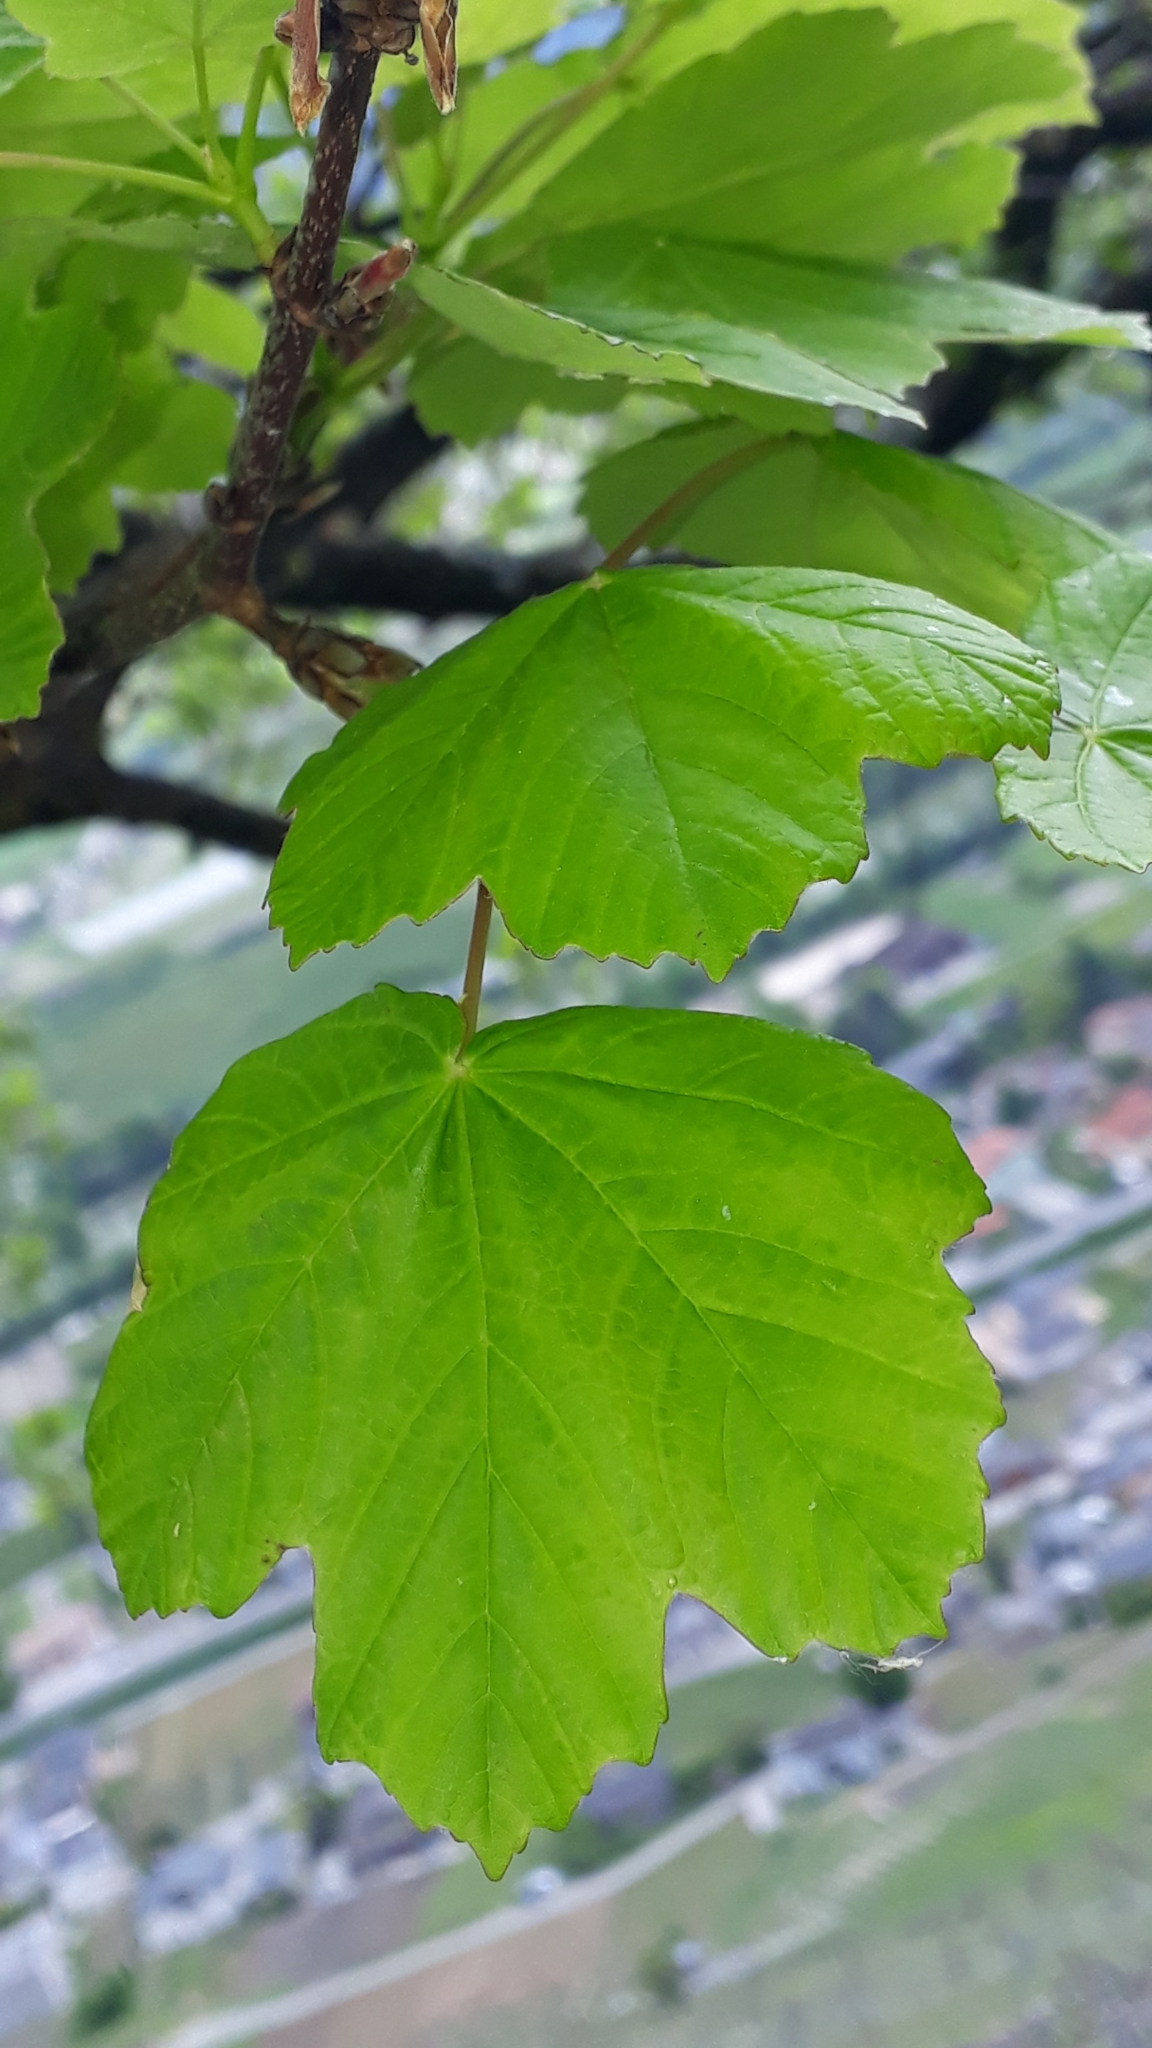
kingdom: Plantae
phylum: Tracheophyta
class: Magnoliopsida
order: Sapindales
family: Sapindaceae
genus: Acer
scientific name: Acer opalus
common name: Italian maple
